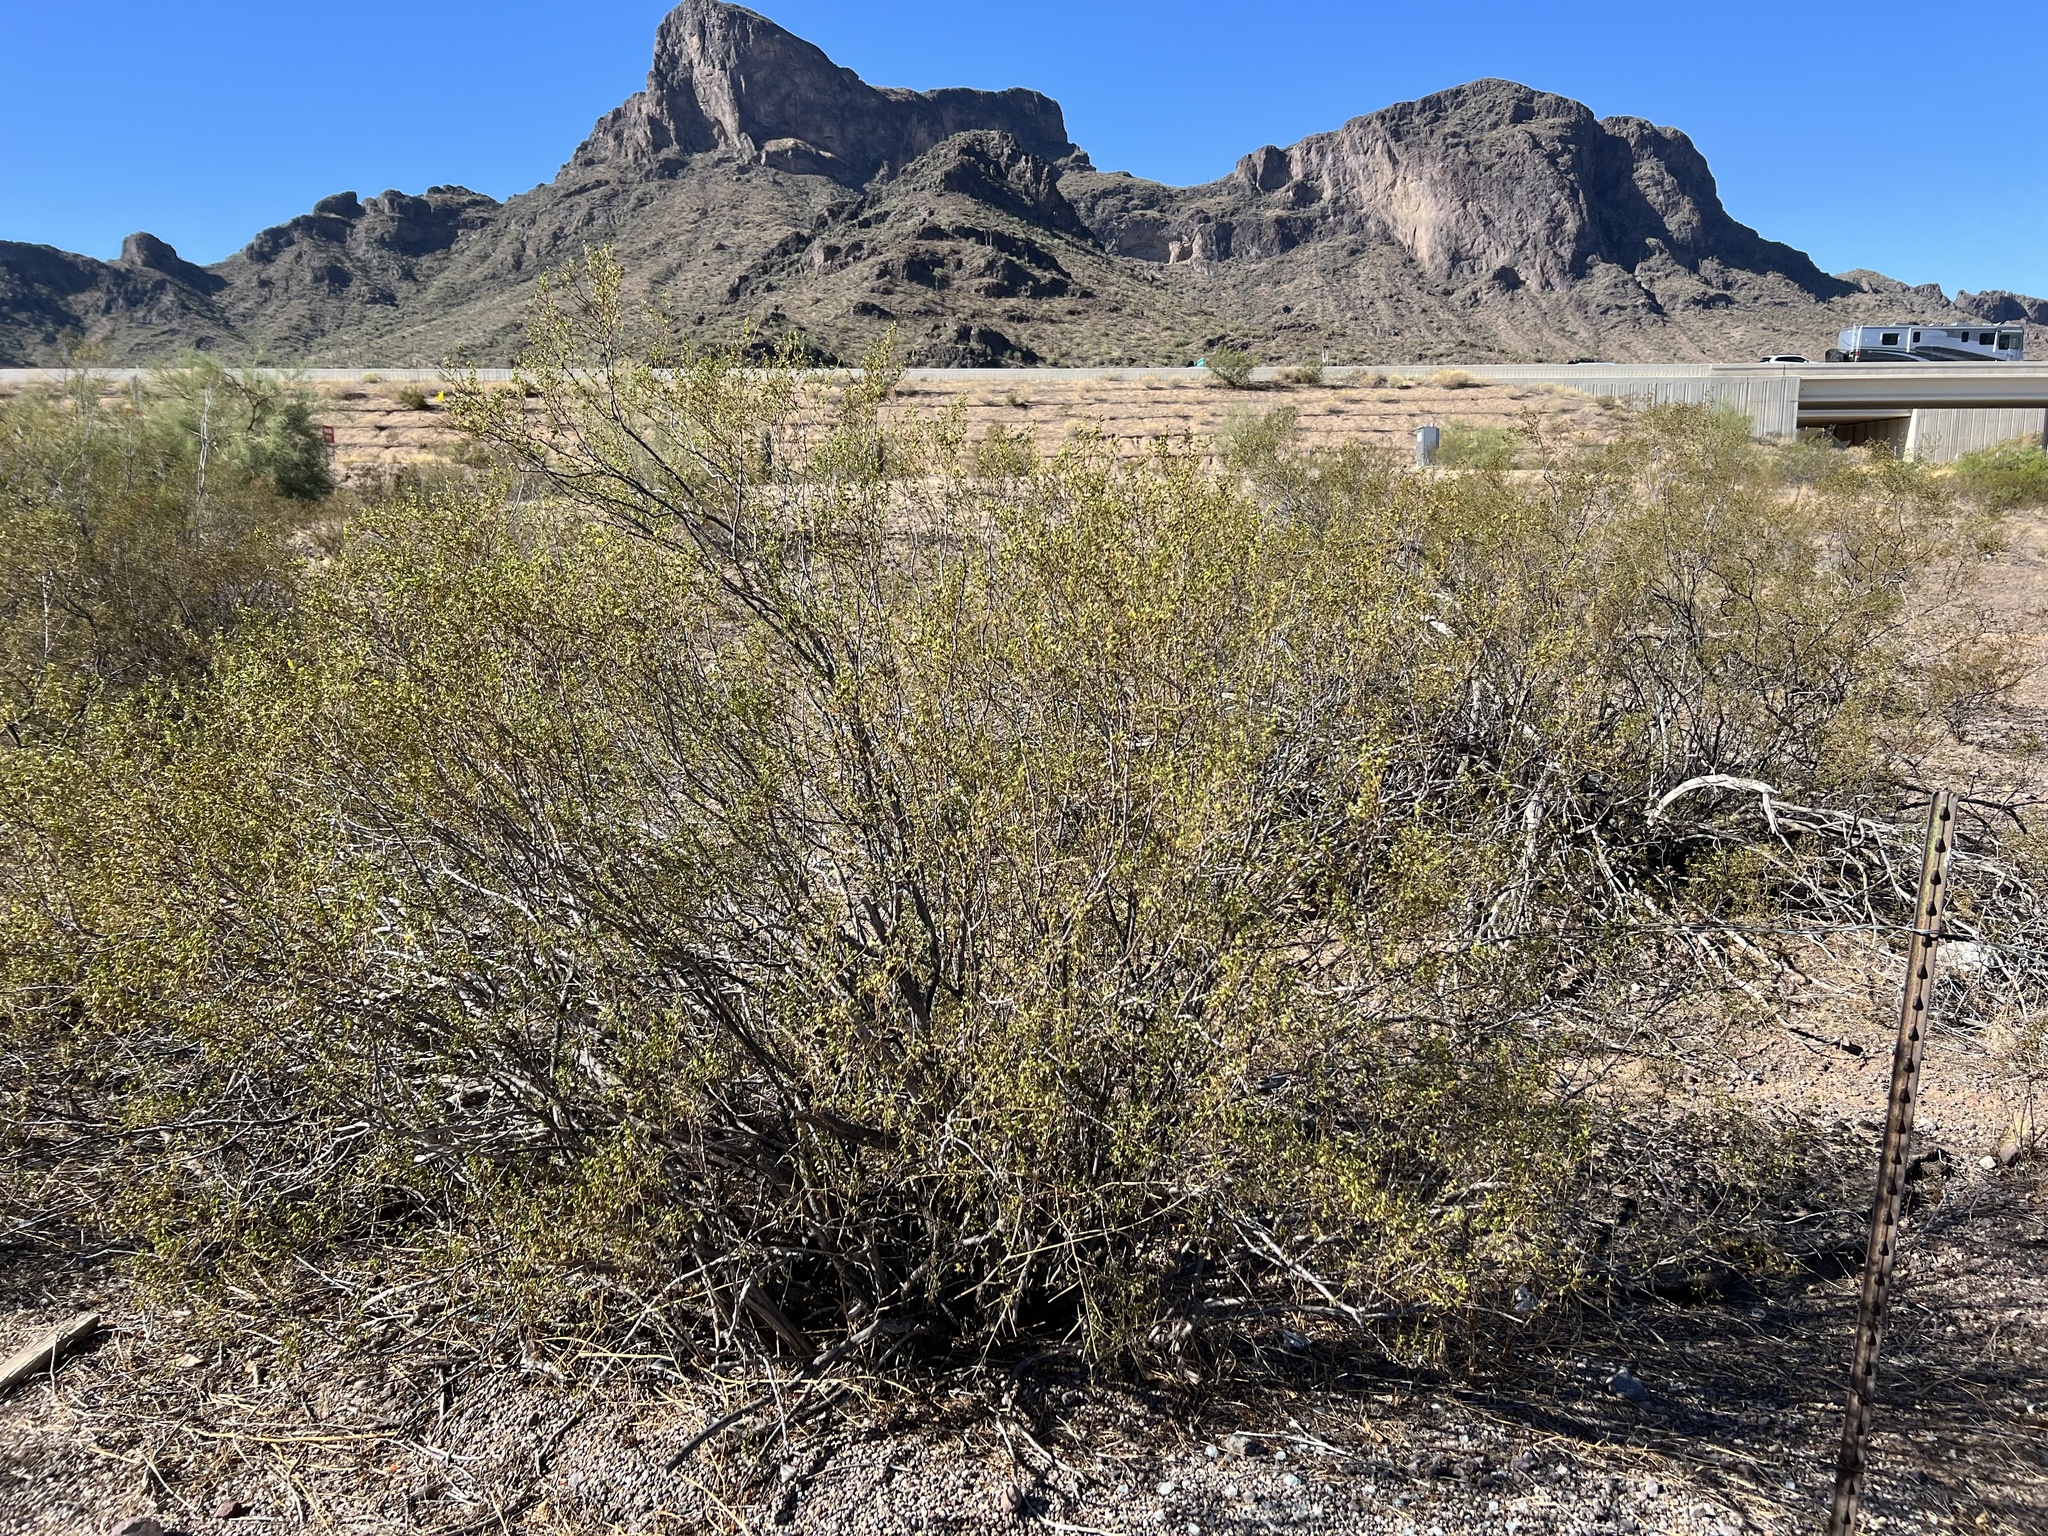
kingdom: Plantae
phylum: Tracheophyta
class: Magnoliopsida
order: Zygophyllales
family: Zygophyllaceae
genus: Larrea
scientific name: Larrea tridentata
